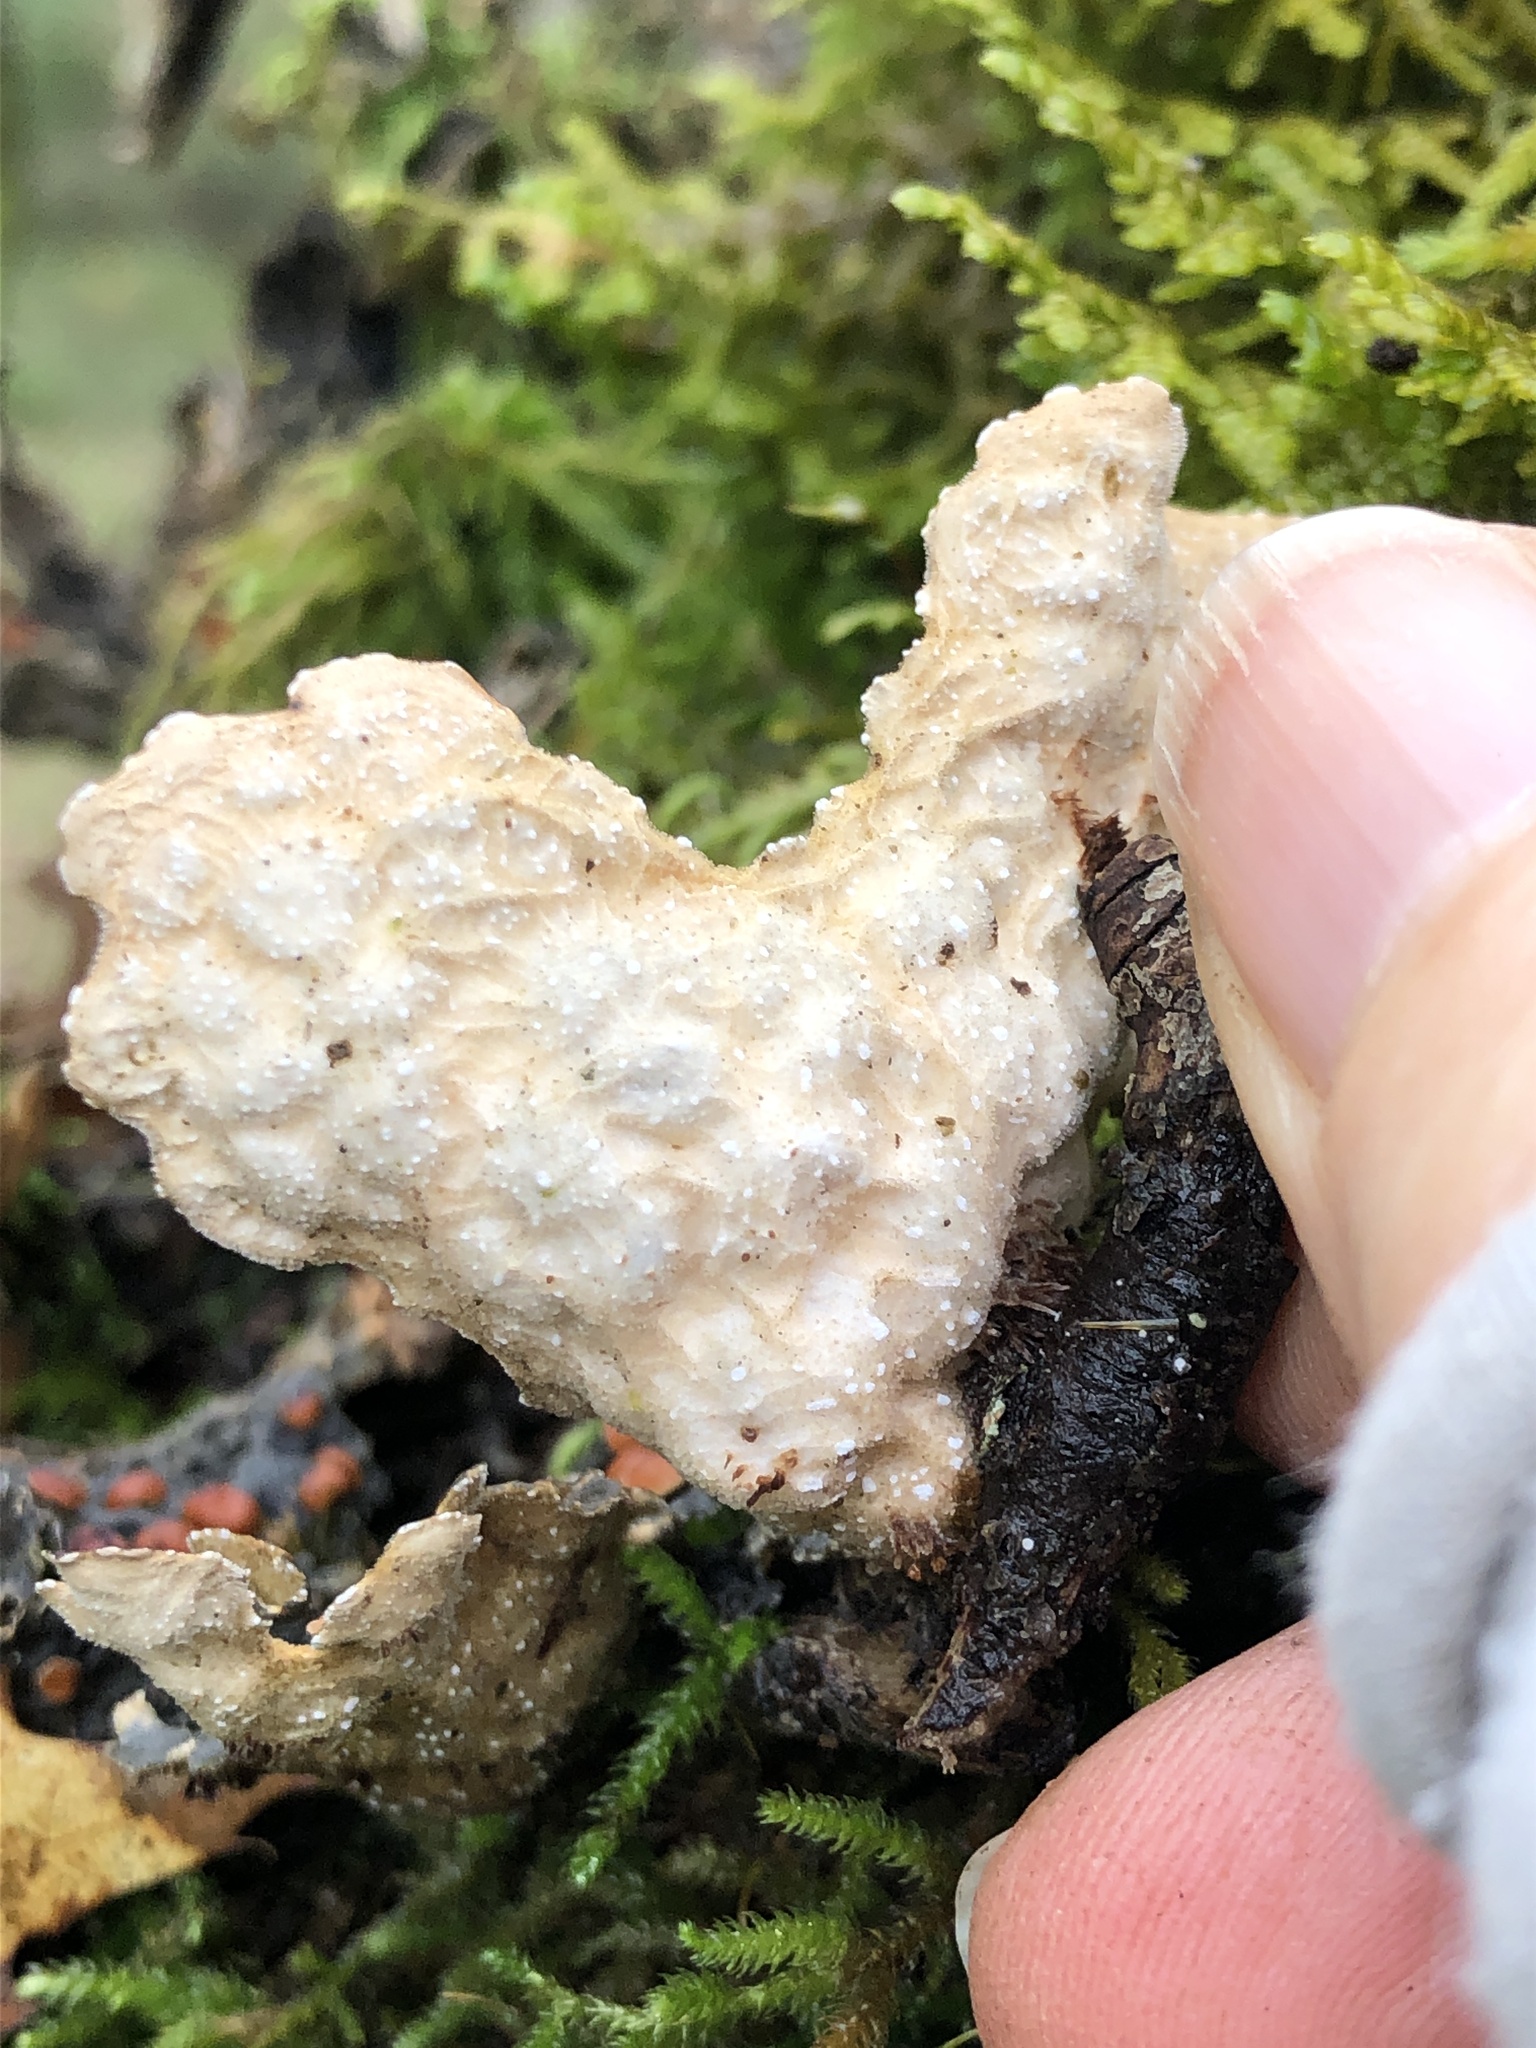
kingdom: Fungi
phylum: Ascomycota
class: Lecanoromycetes
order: Peltigerales
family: Lobariaceae
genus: Lobaria
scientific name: Lobaria anthraspis
